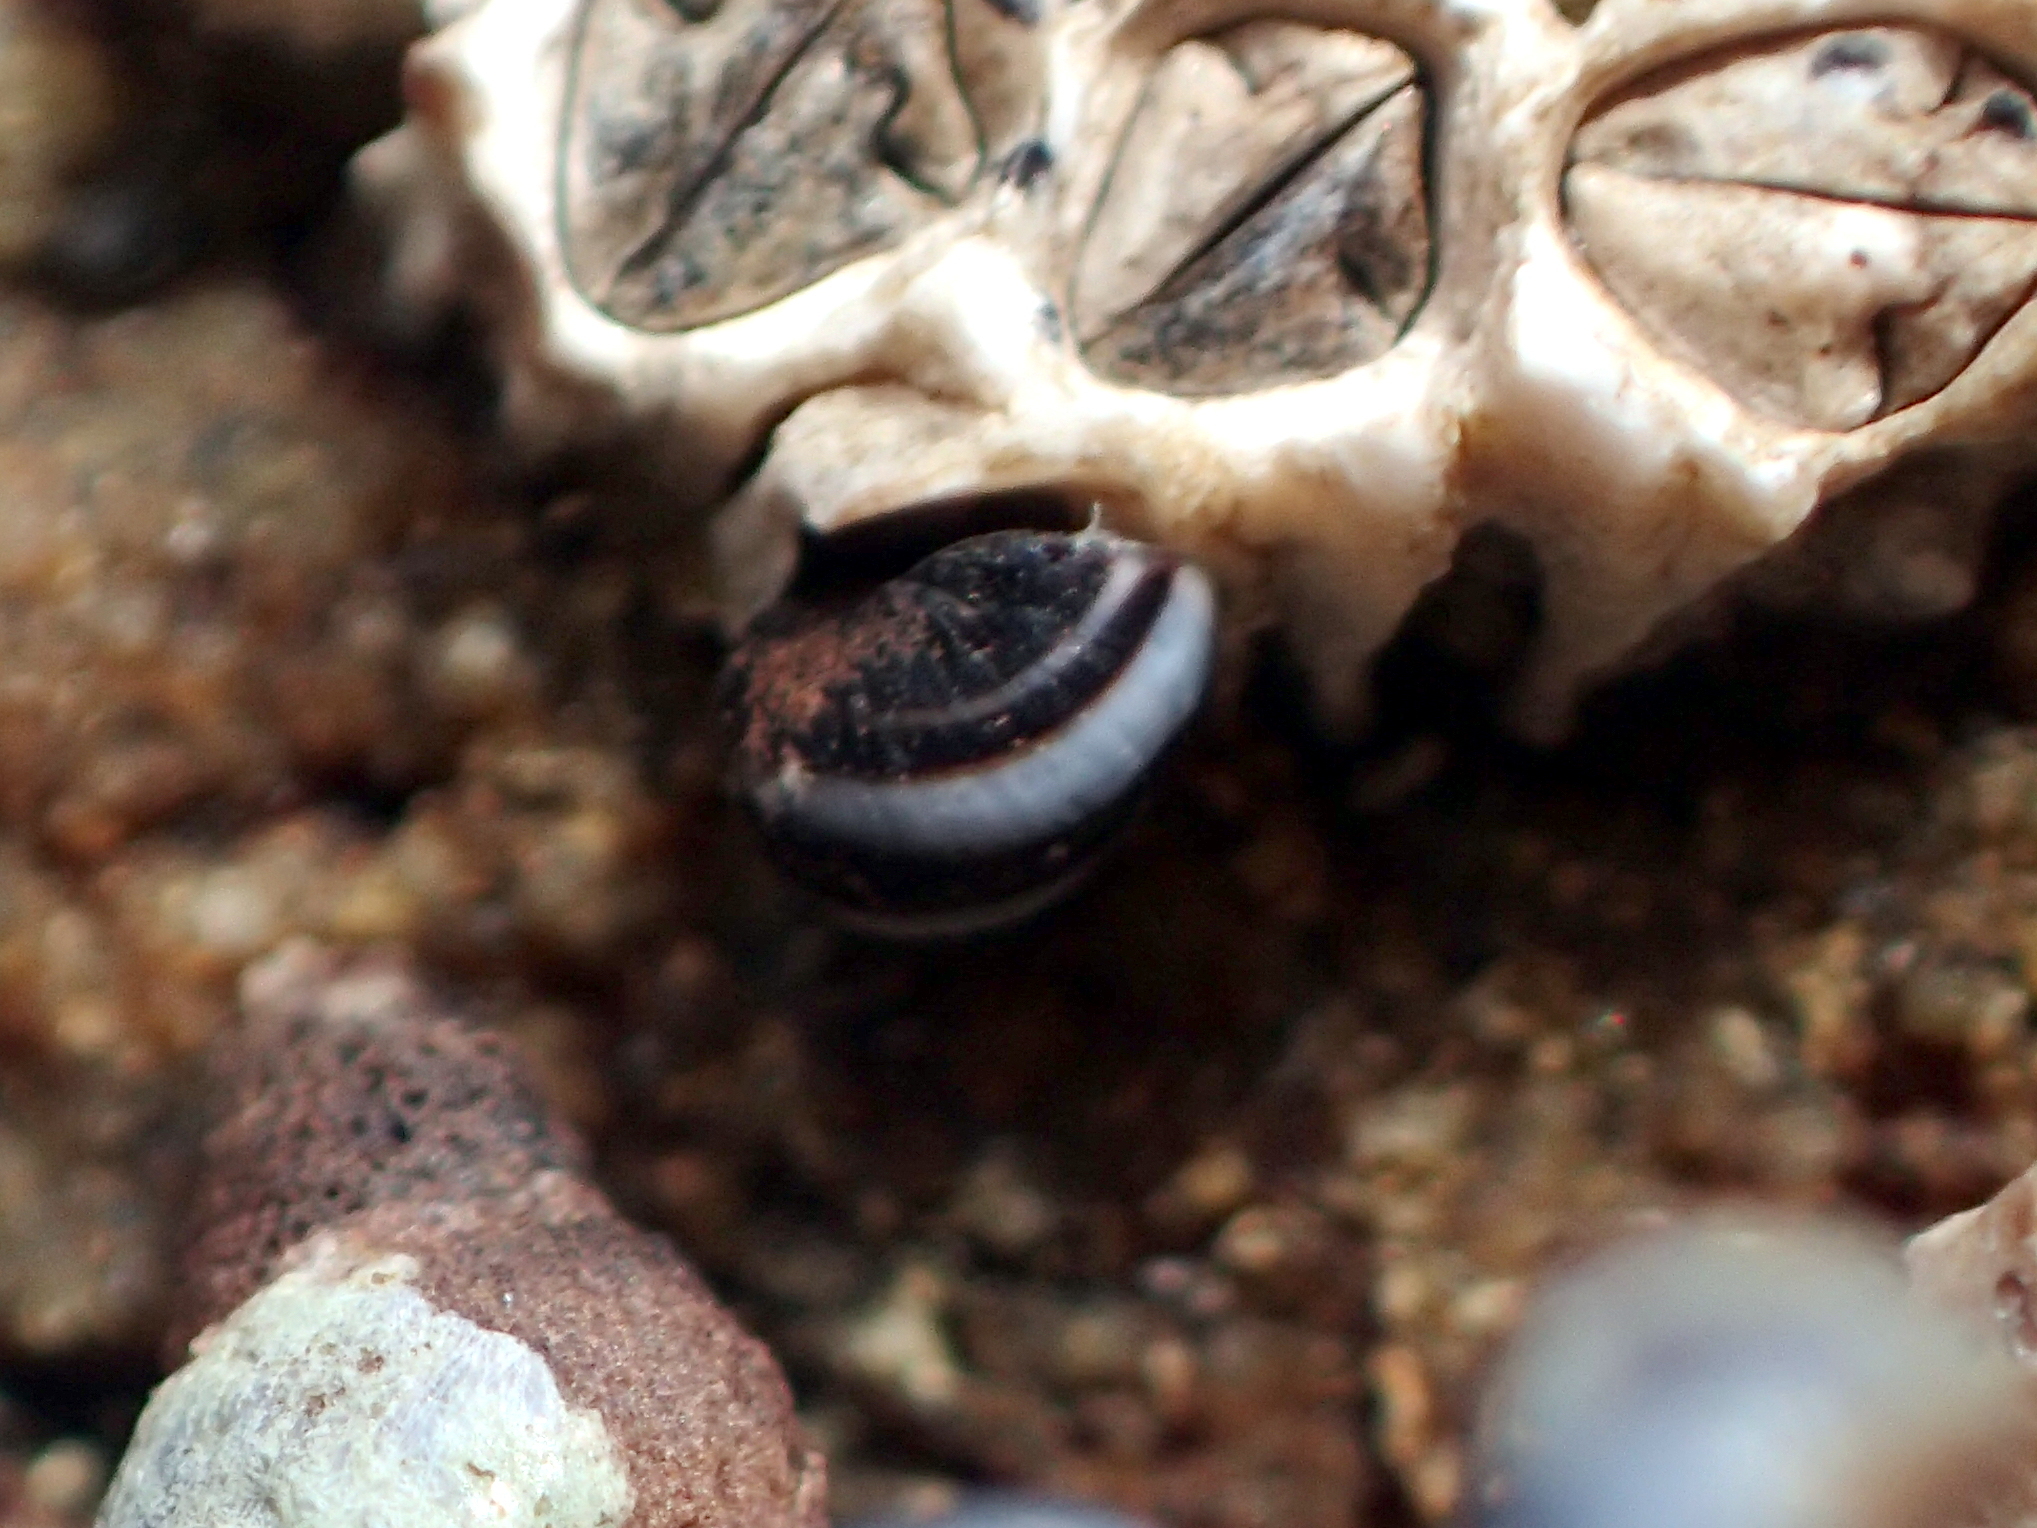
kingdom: Animalia
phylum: Mollusca
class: Gastropoda
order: Littorinimorpha
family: Littorinidae
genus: Austrolittorina
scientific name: Austrolittorina antipodum
